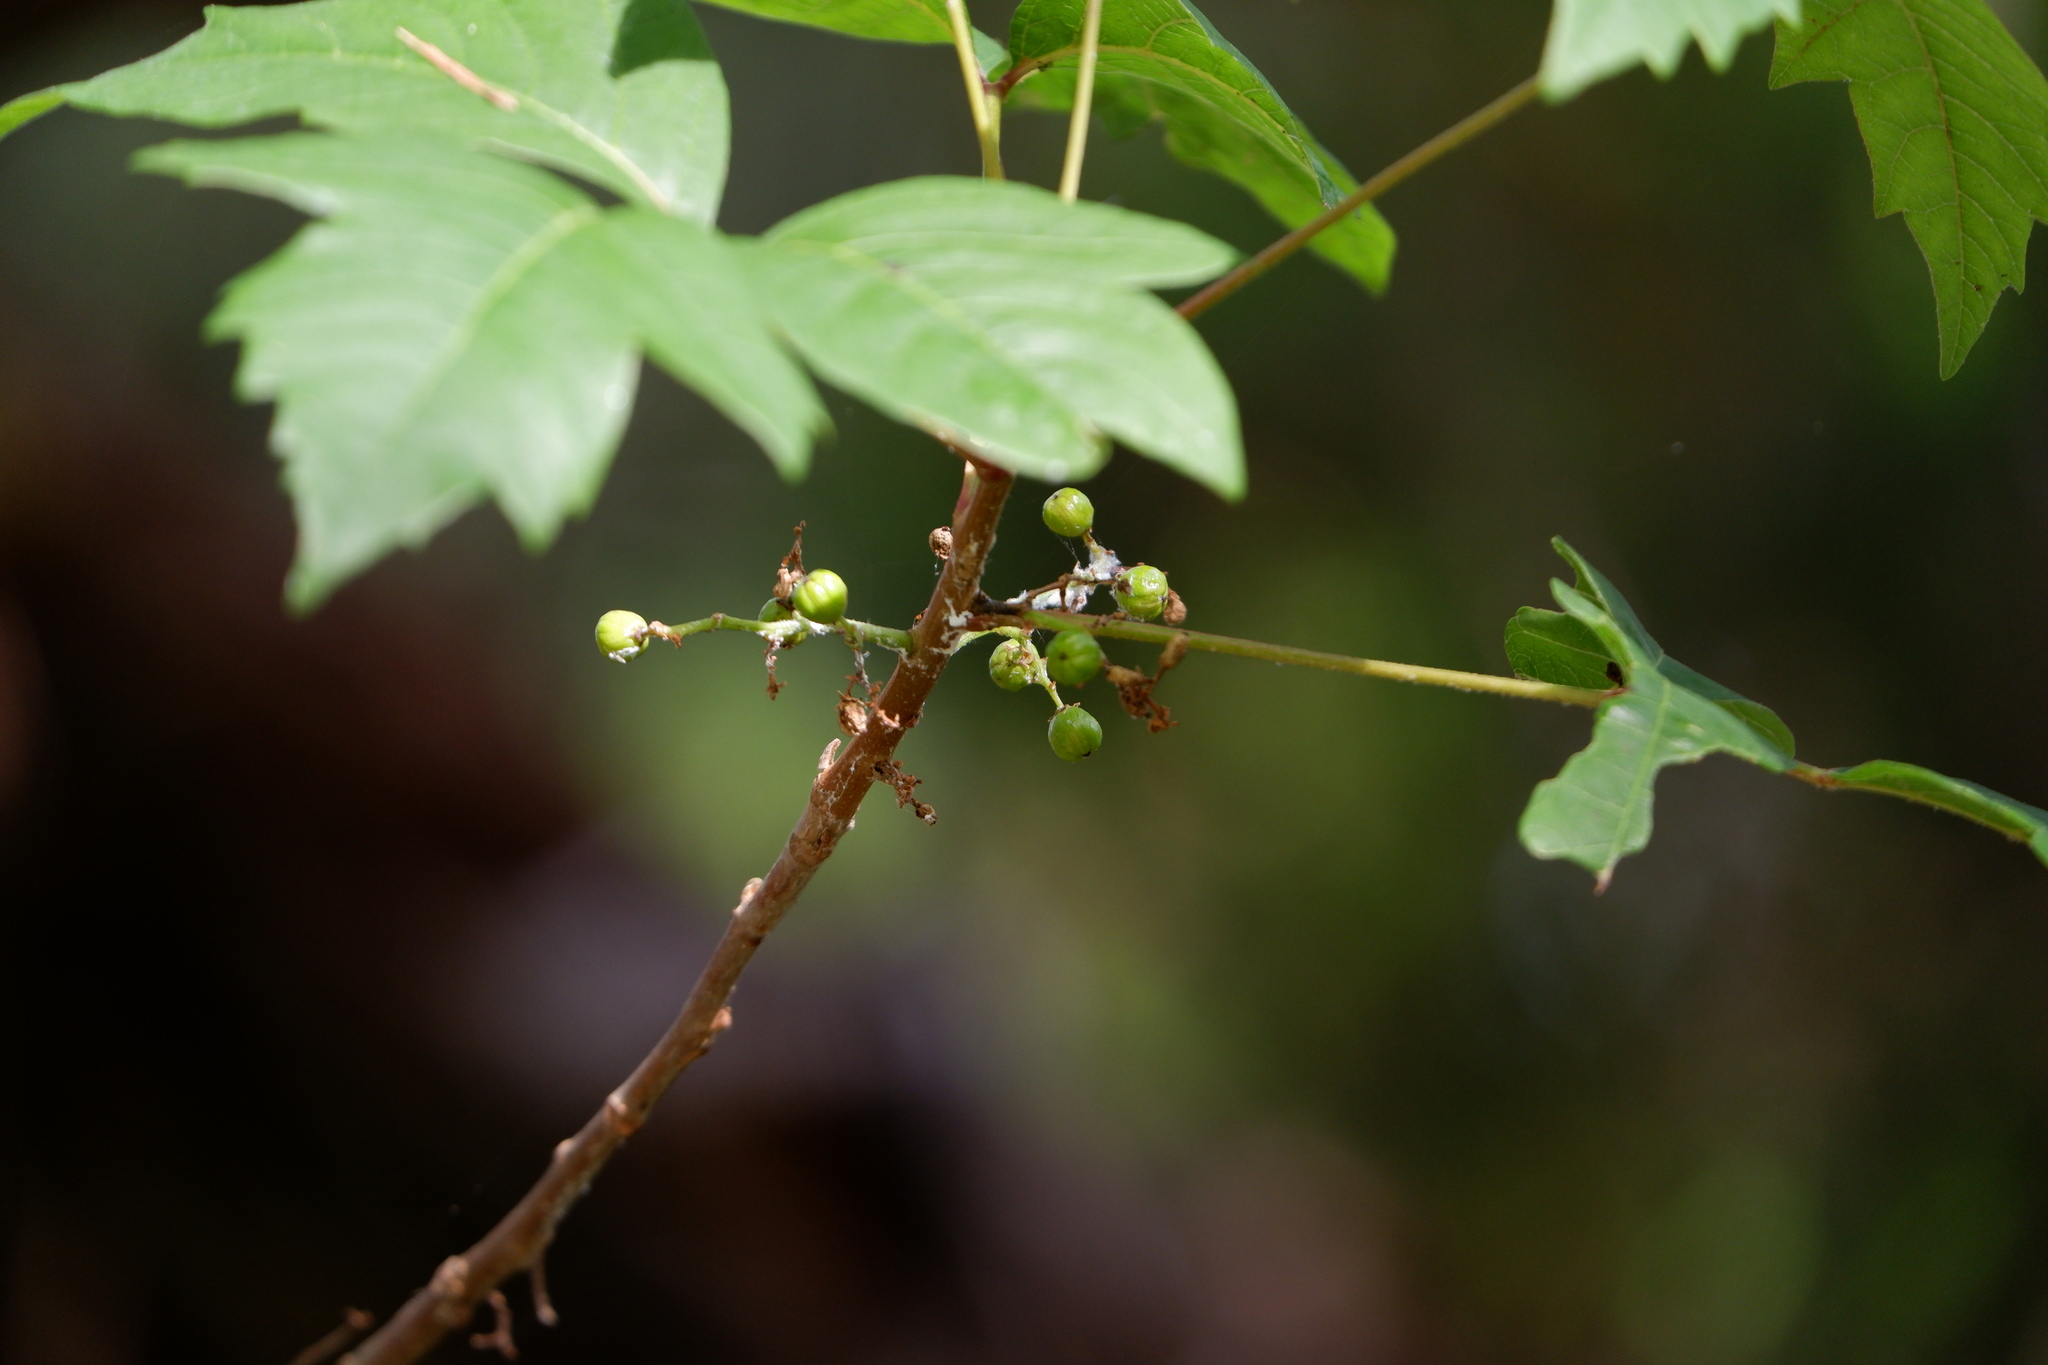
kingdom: Plantae
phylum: Tracheophyta
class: Magnoliopsida
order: Sapindales
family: Anacardiaceae
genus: Toxicodendron
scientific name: Toxicodendron radicans
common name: Poison ivy
